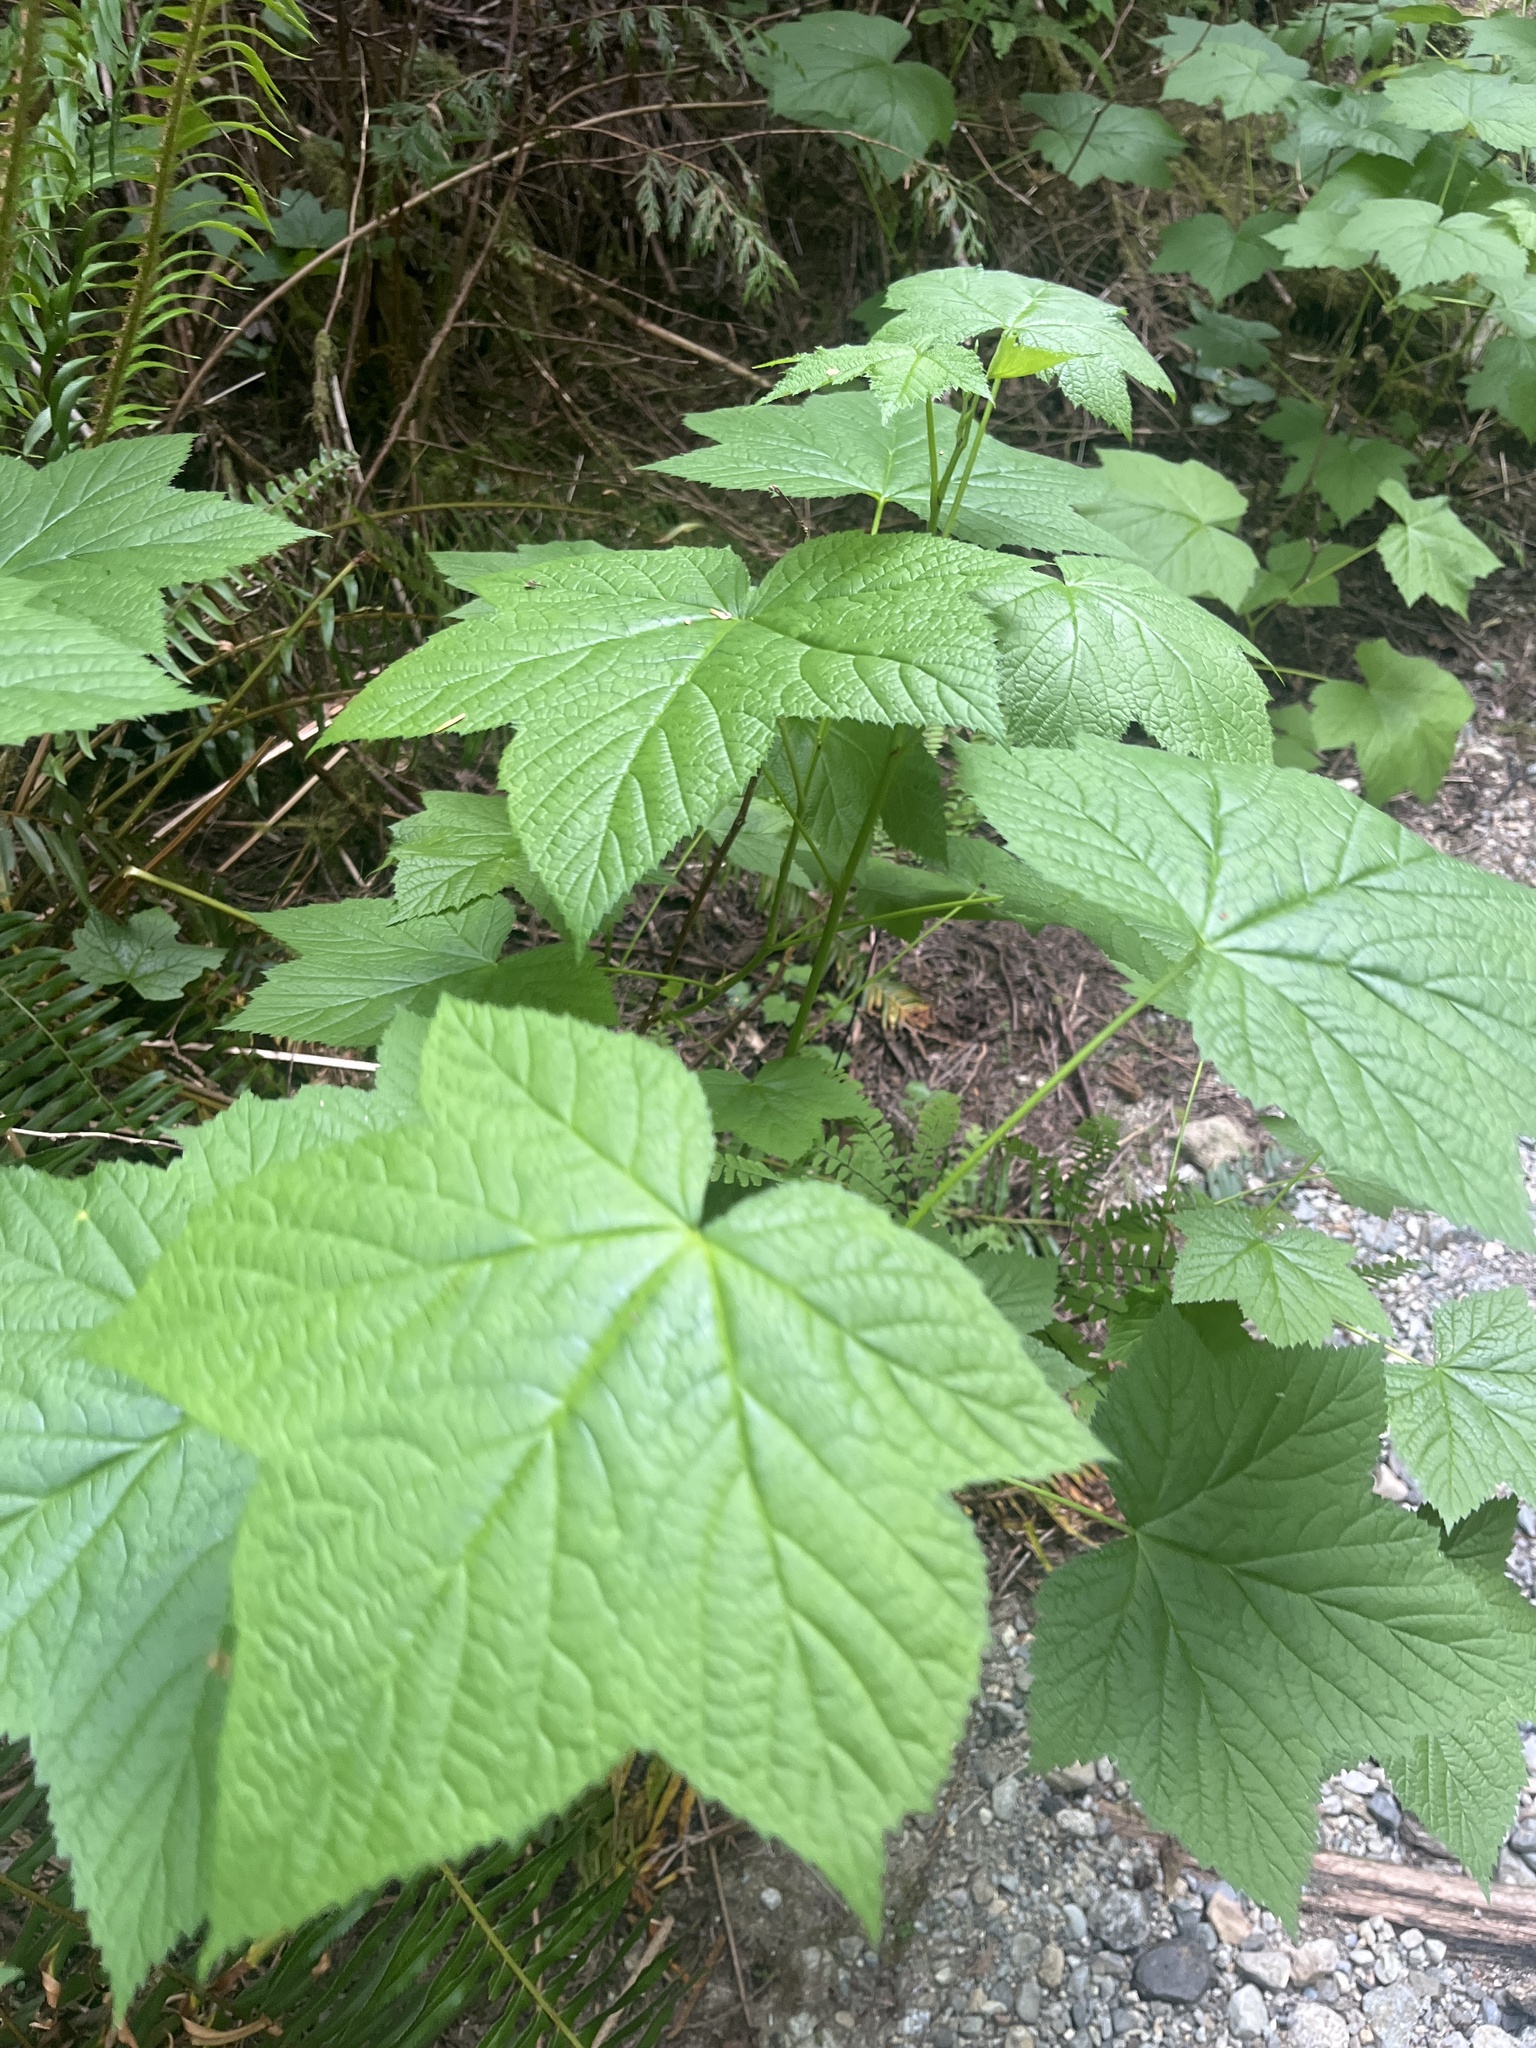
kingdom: Plantae
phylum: Tracheophyta
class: Magnoliopsida
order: Rosales
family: Rosaceae
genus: Rubus
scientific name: Rubus parviflorus
